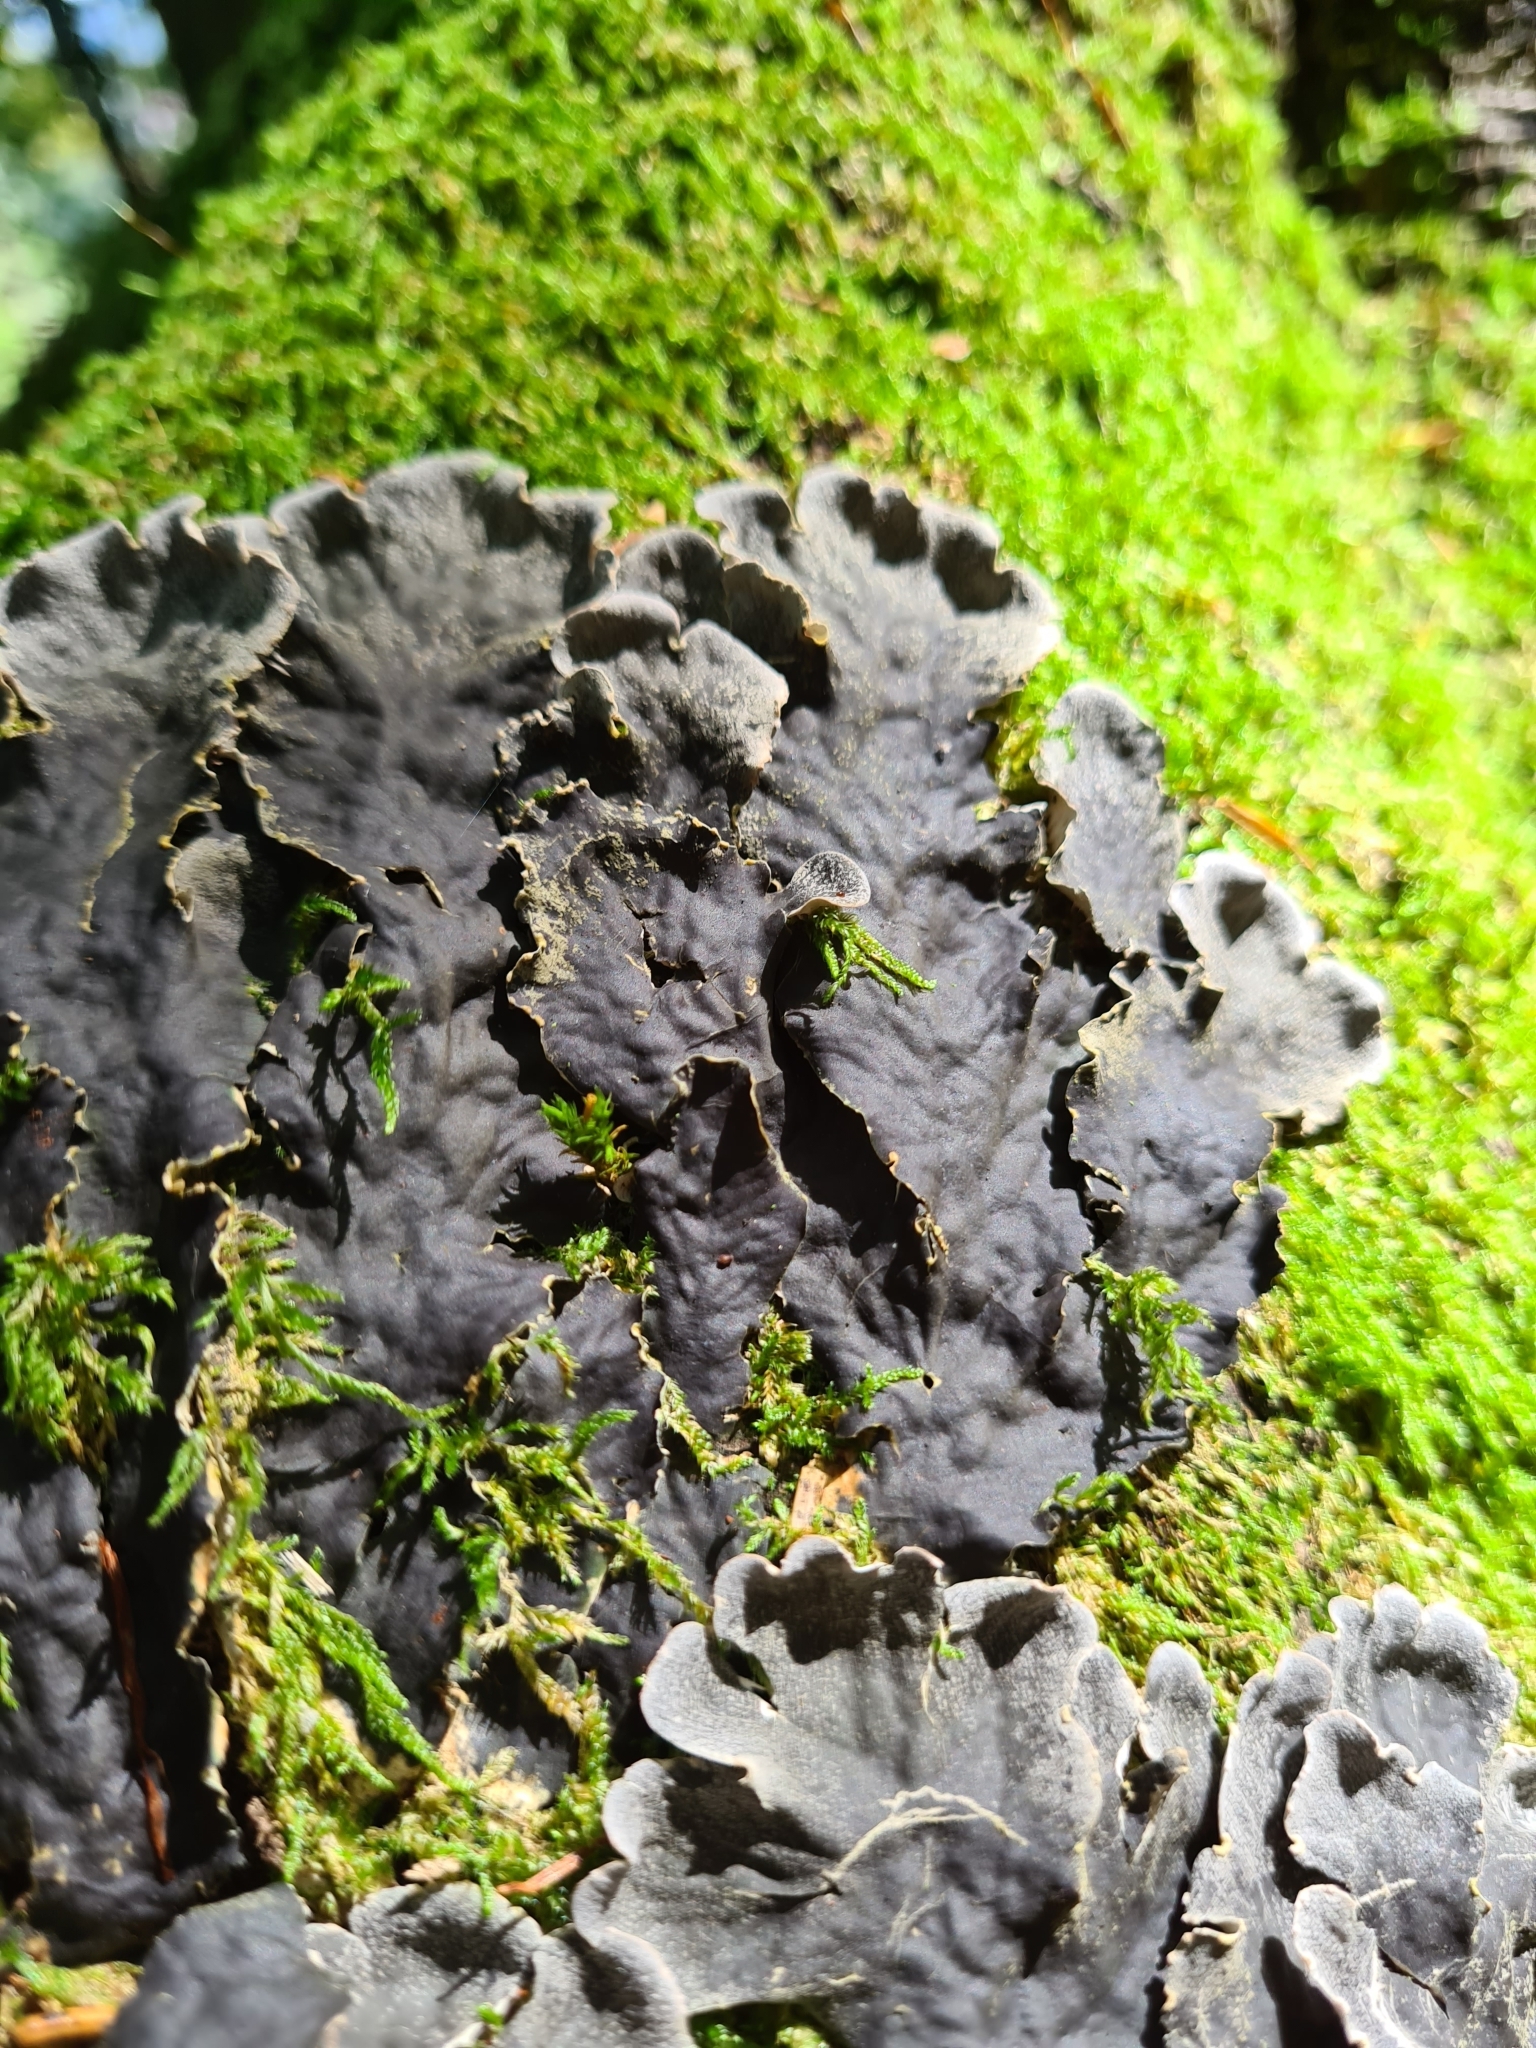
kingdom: Fungi
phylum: Ascomycota
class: Lecanoromycetes
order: Peltigerales
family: Peltigeraceae
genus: Peltigera
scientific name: Peltigera
